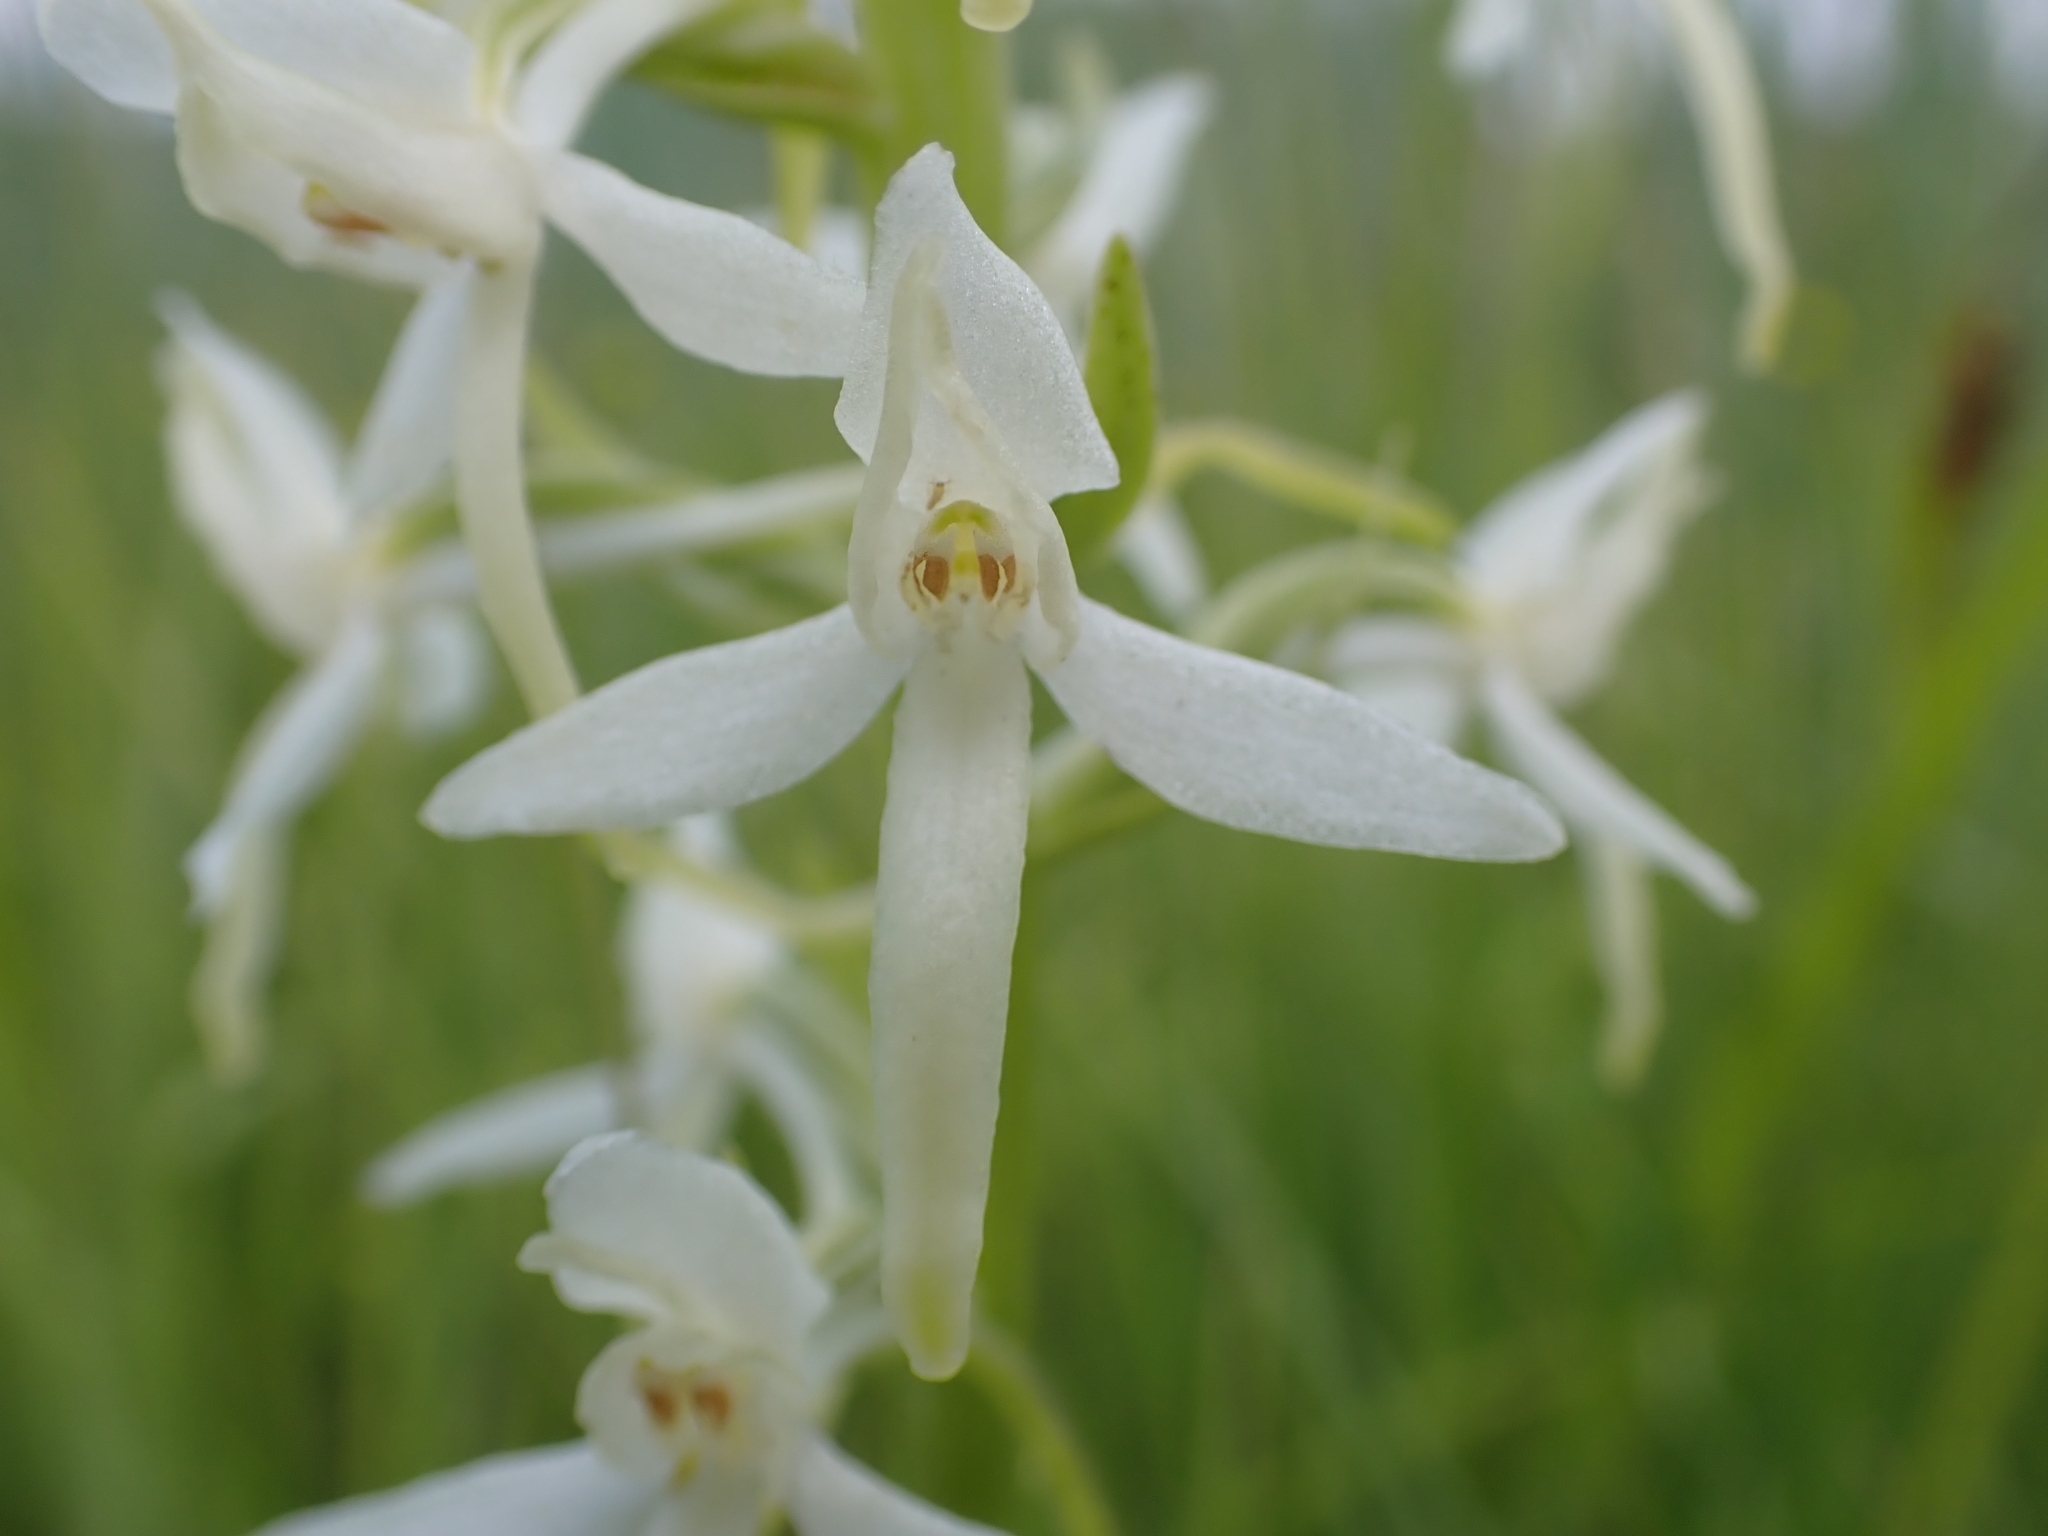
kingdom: Plantae
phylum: Tracheophyta
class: Liliopsida
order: Asparagales
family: Orchidaceae
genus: Platanthera
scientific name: Platanthera bifolia
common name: Lesser butterfly-orchid
